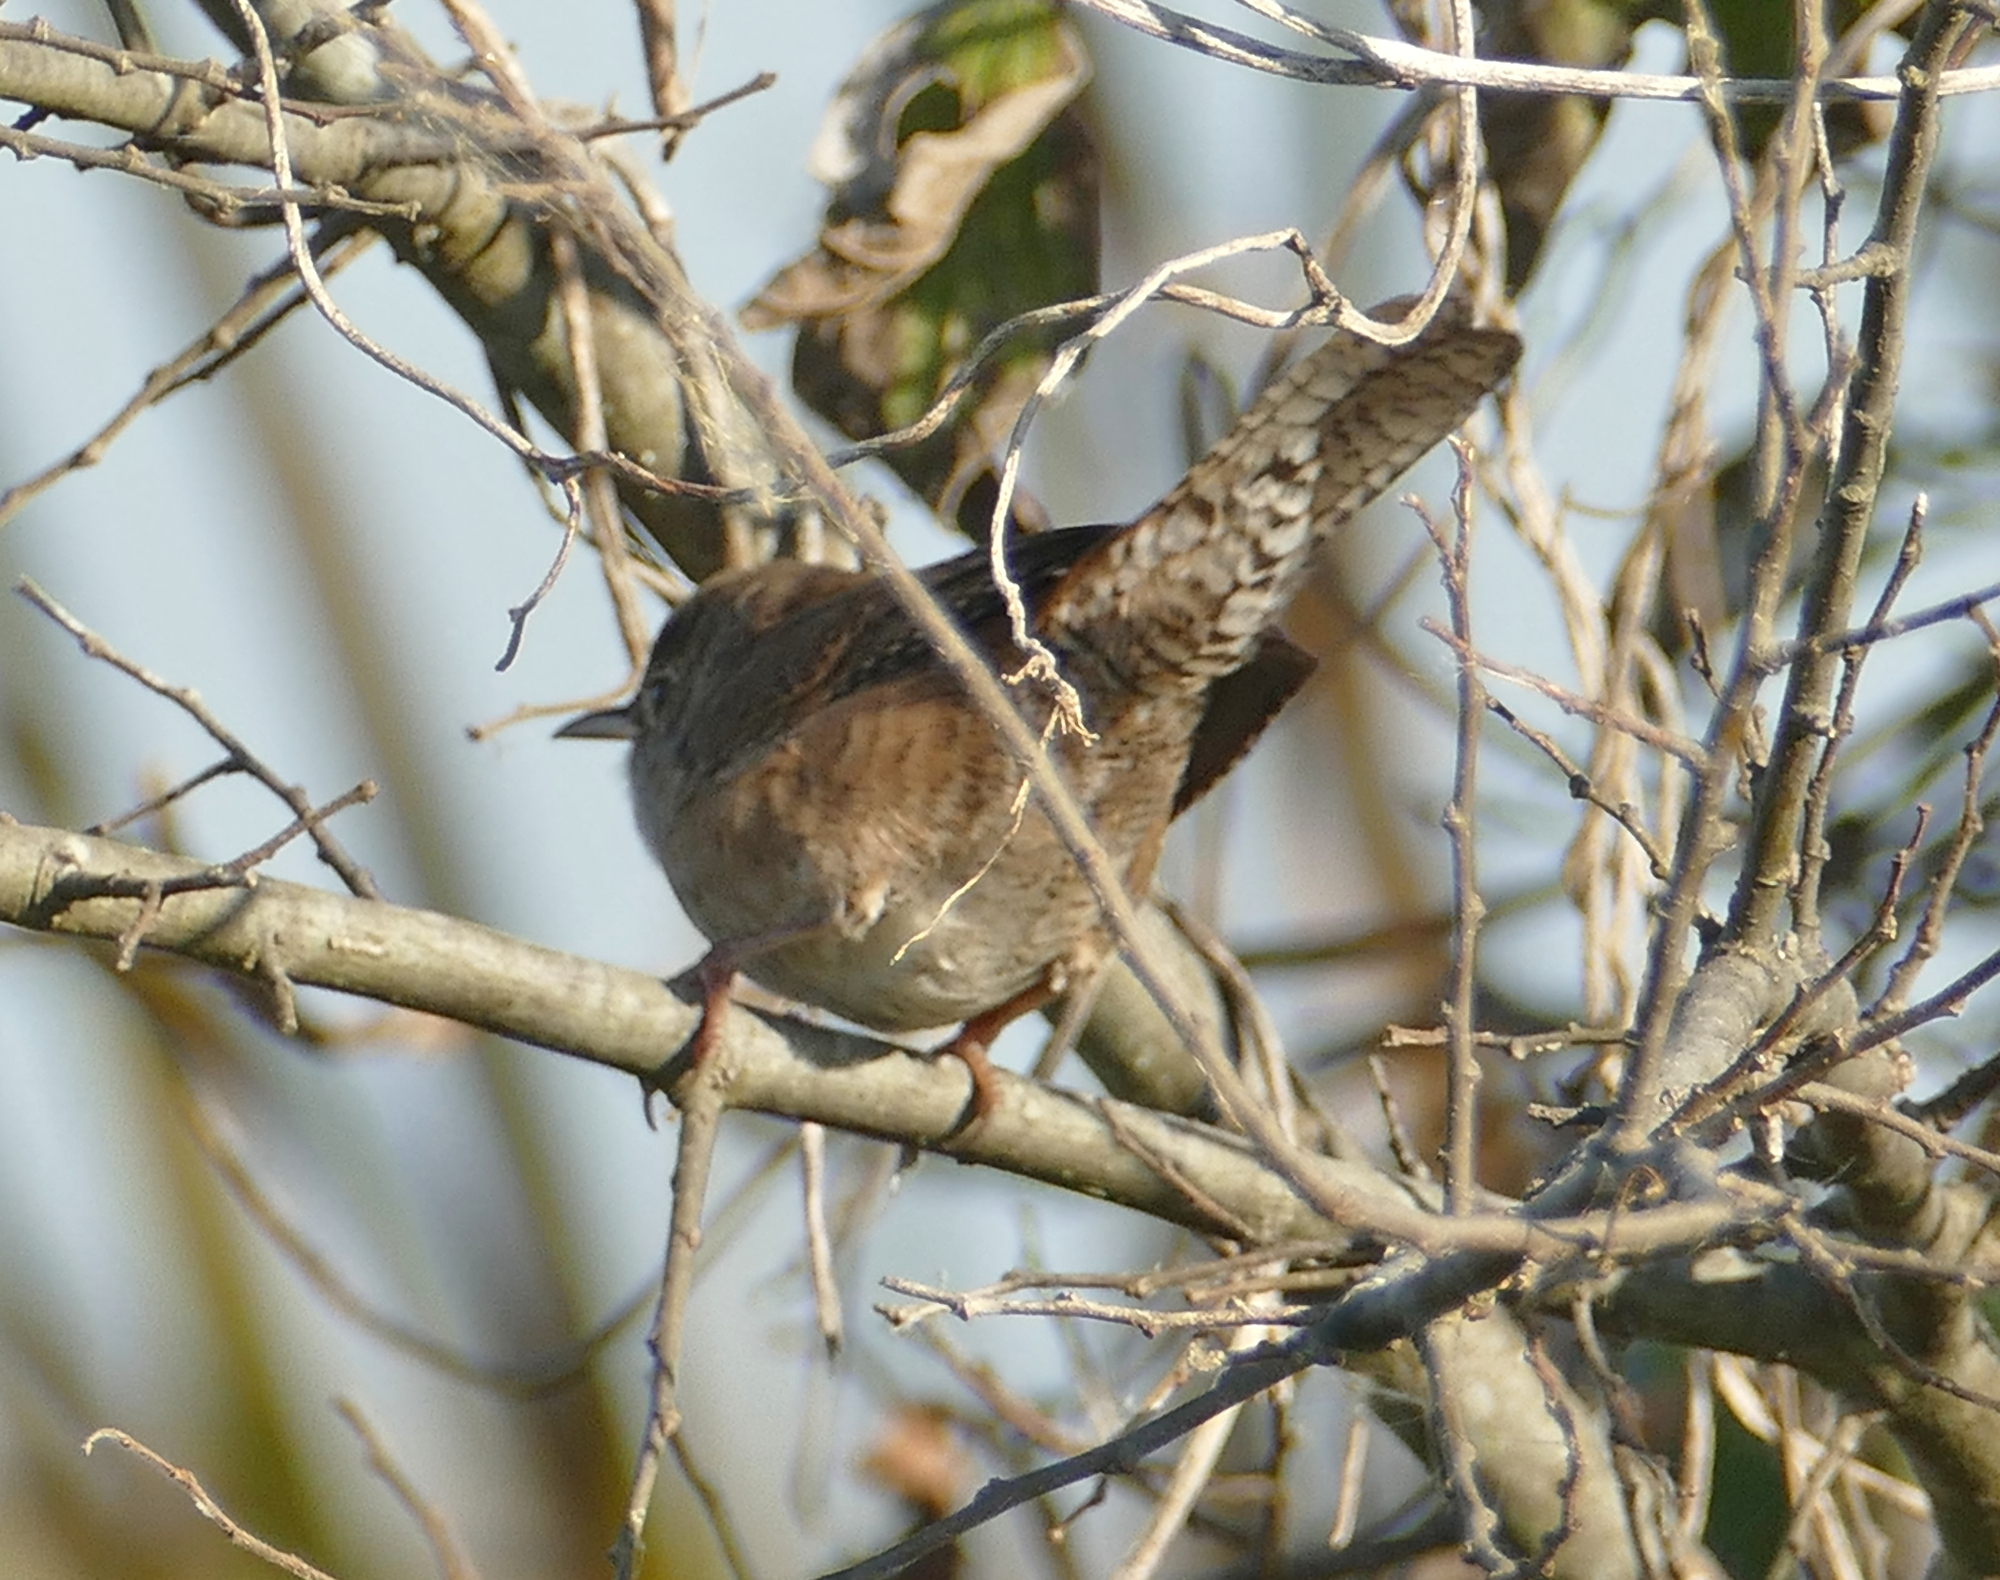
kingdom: Animalia
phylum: Chordata
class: Aves
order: Passeriformes
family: Troglodytidae
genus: Troglodytes
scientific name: Troglodytes aedon
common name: House wren
